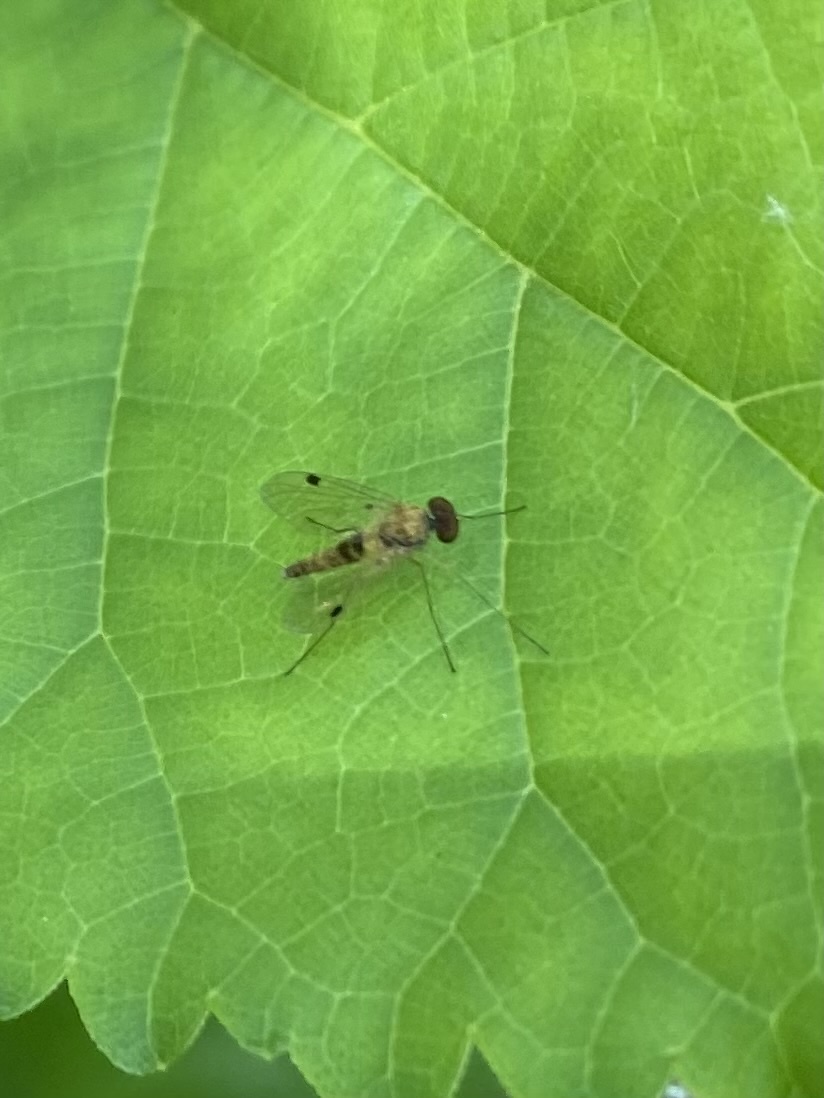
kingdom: Animalia
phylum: Arthropoda
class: Insecta
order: Diptera
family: Rhagionidae
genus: Chrysopilus
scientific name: Chrysopilus modestus
